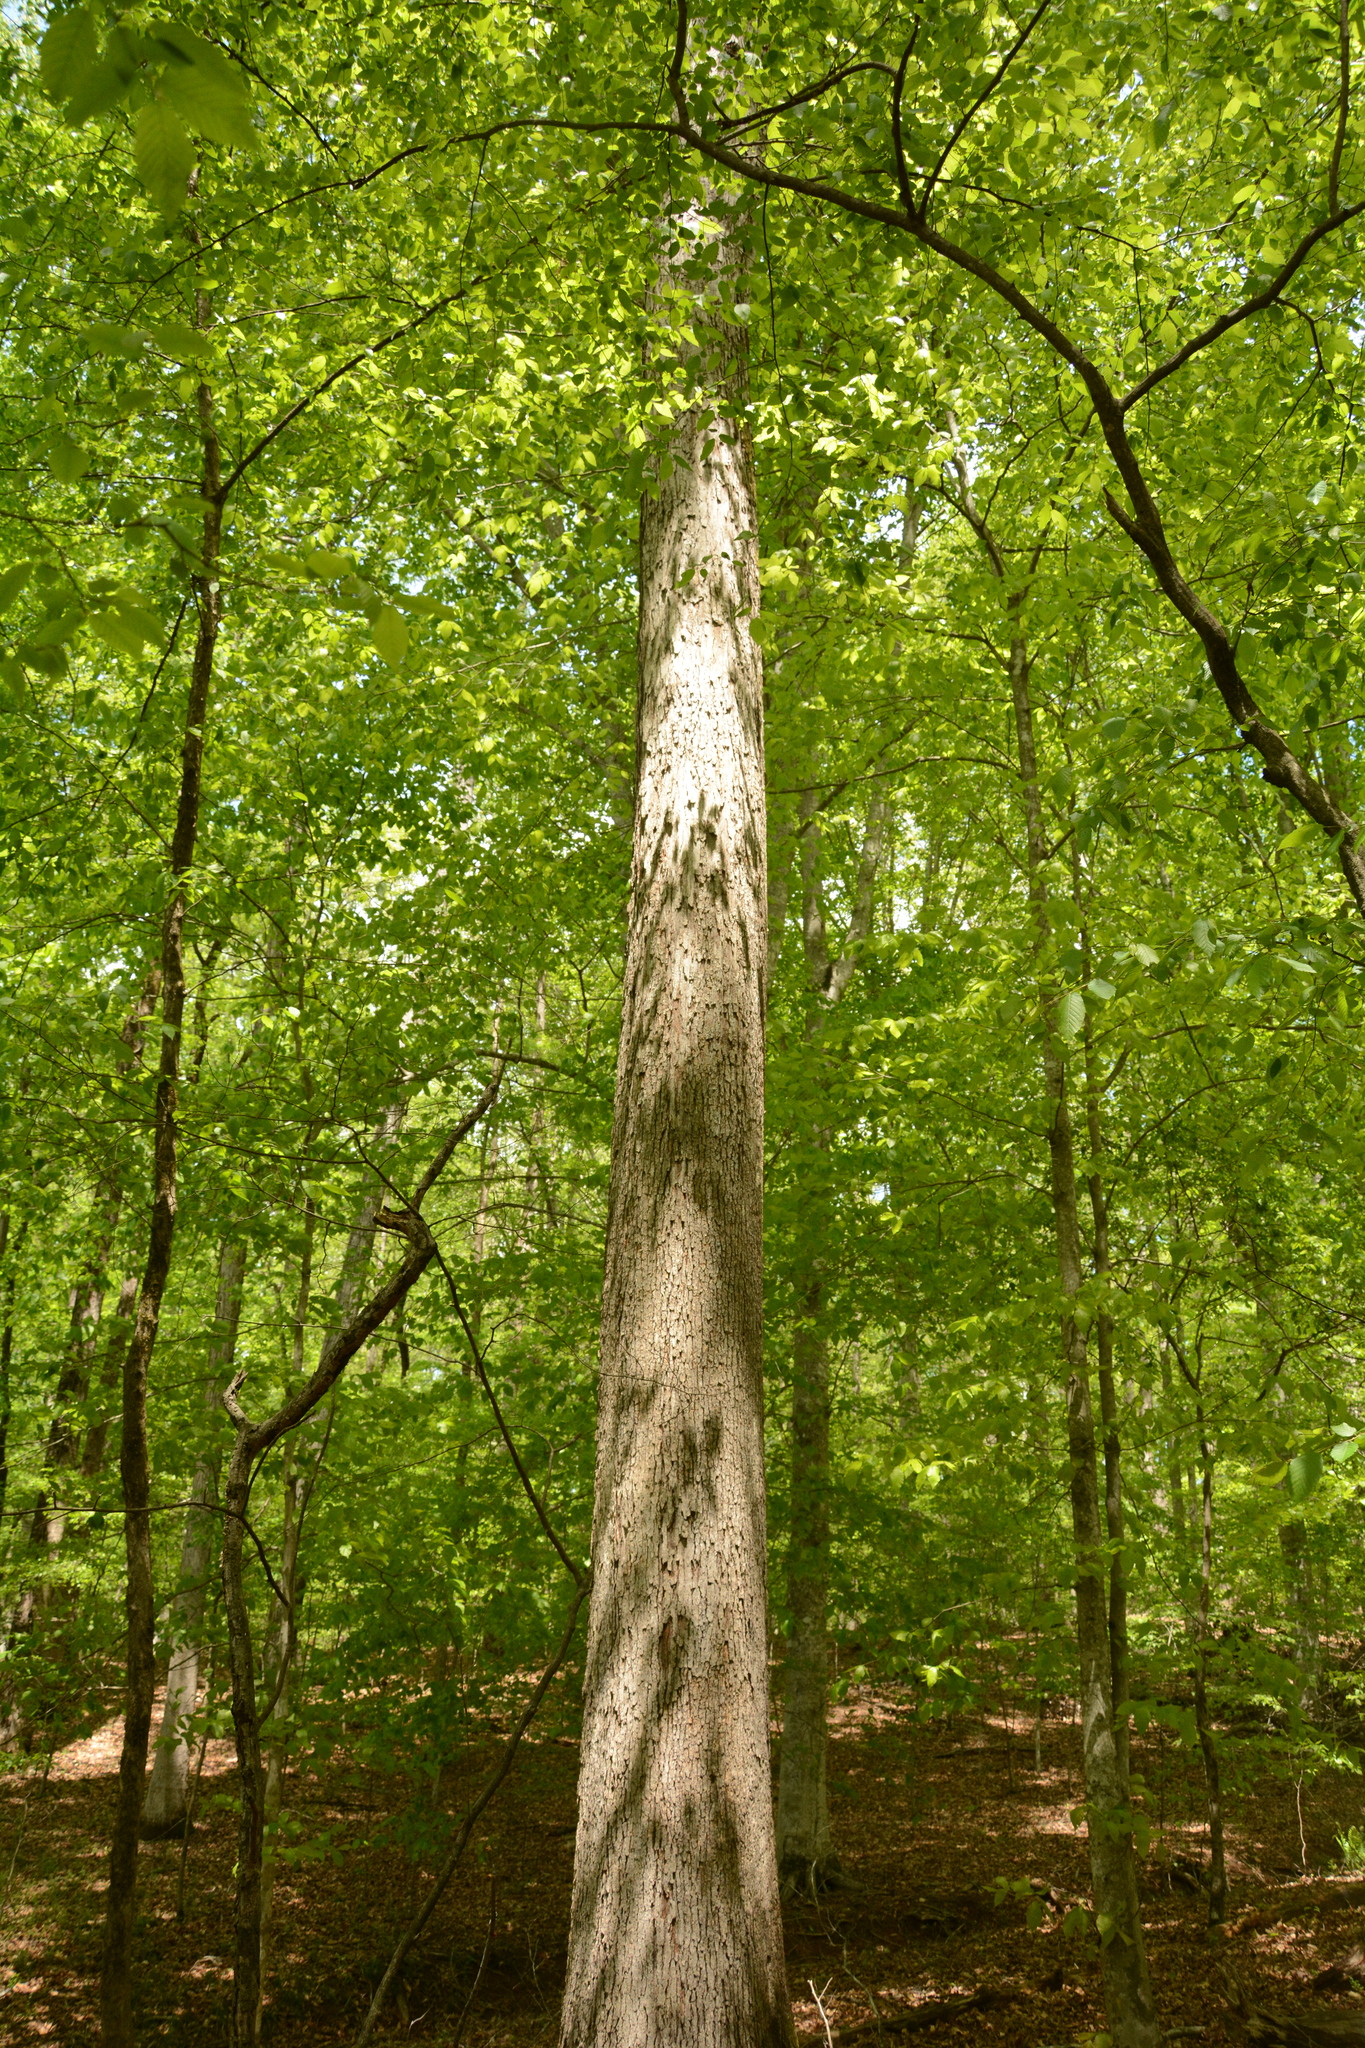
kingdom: Plantae
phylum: Tracheophyta
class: Magnoliopsida
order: Fagales
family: Fagaceae
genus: Quercus
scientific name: Quercus alba
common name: White oak
